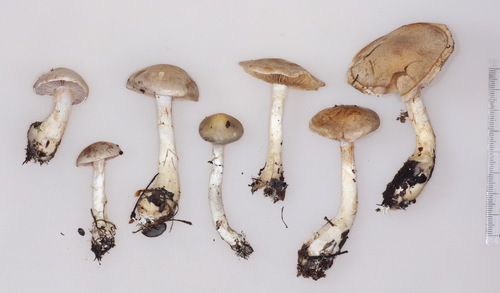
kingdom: Fungi
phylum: Basidiomycota
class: Agaricomycetes
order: Agaricales
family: Cortinariaceae
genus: Cortinarius
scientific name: Cortinarius anomalus
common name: Variable webcap
